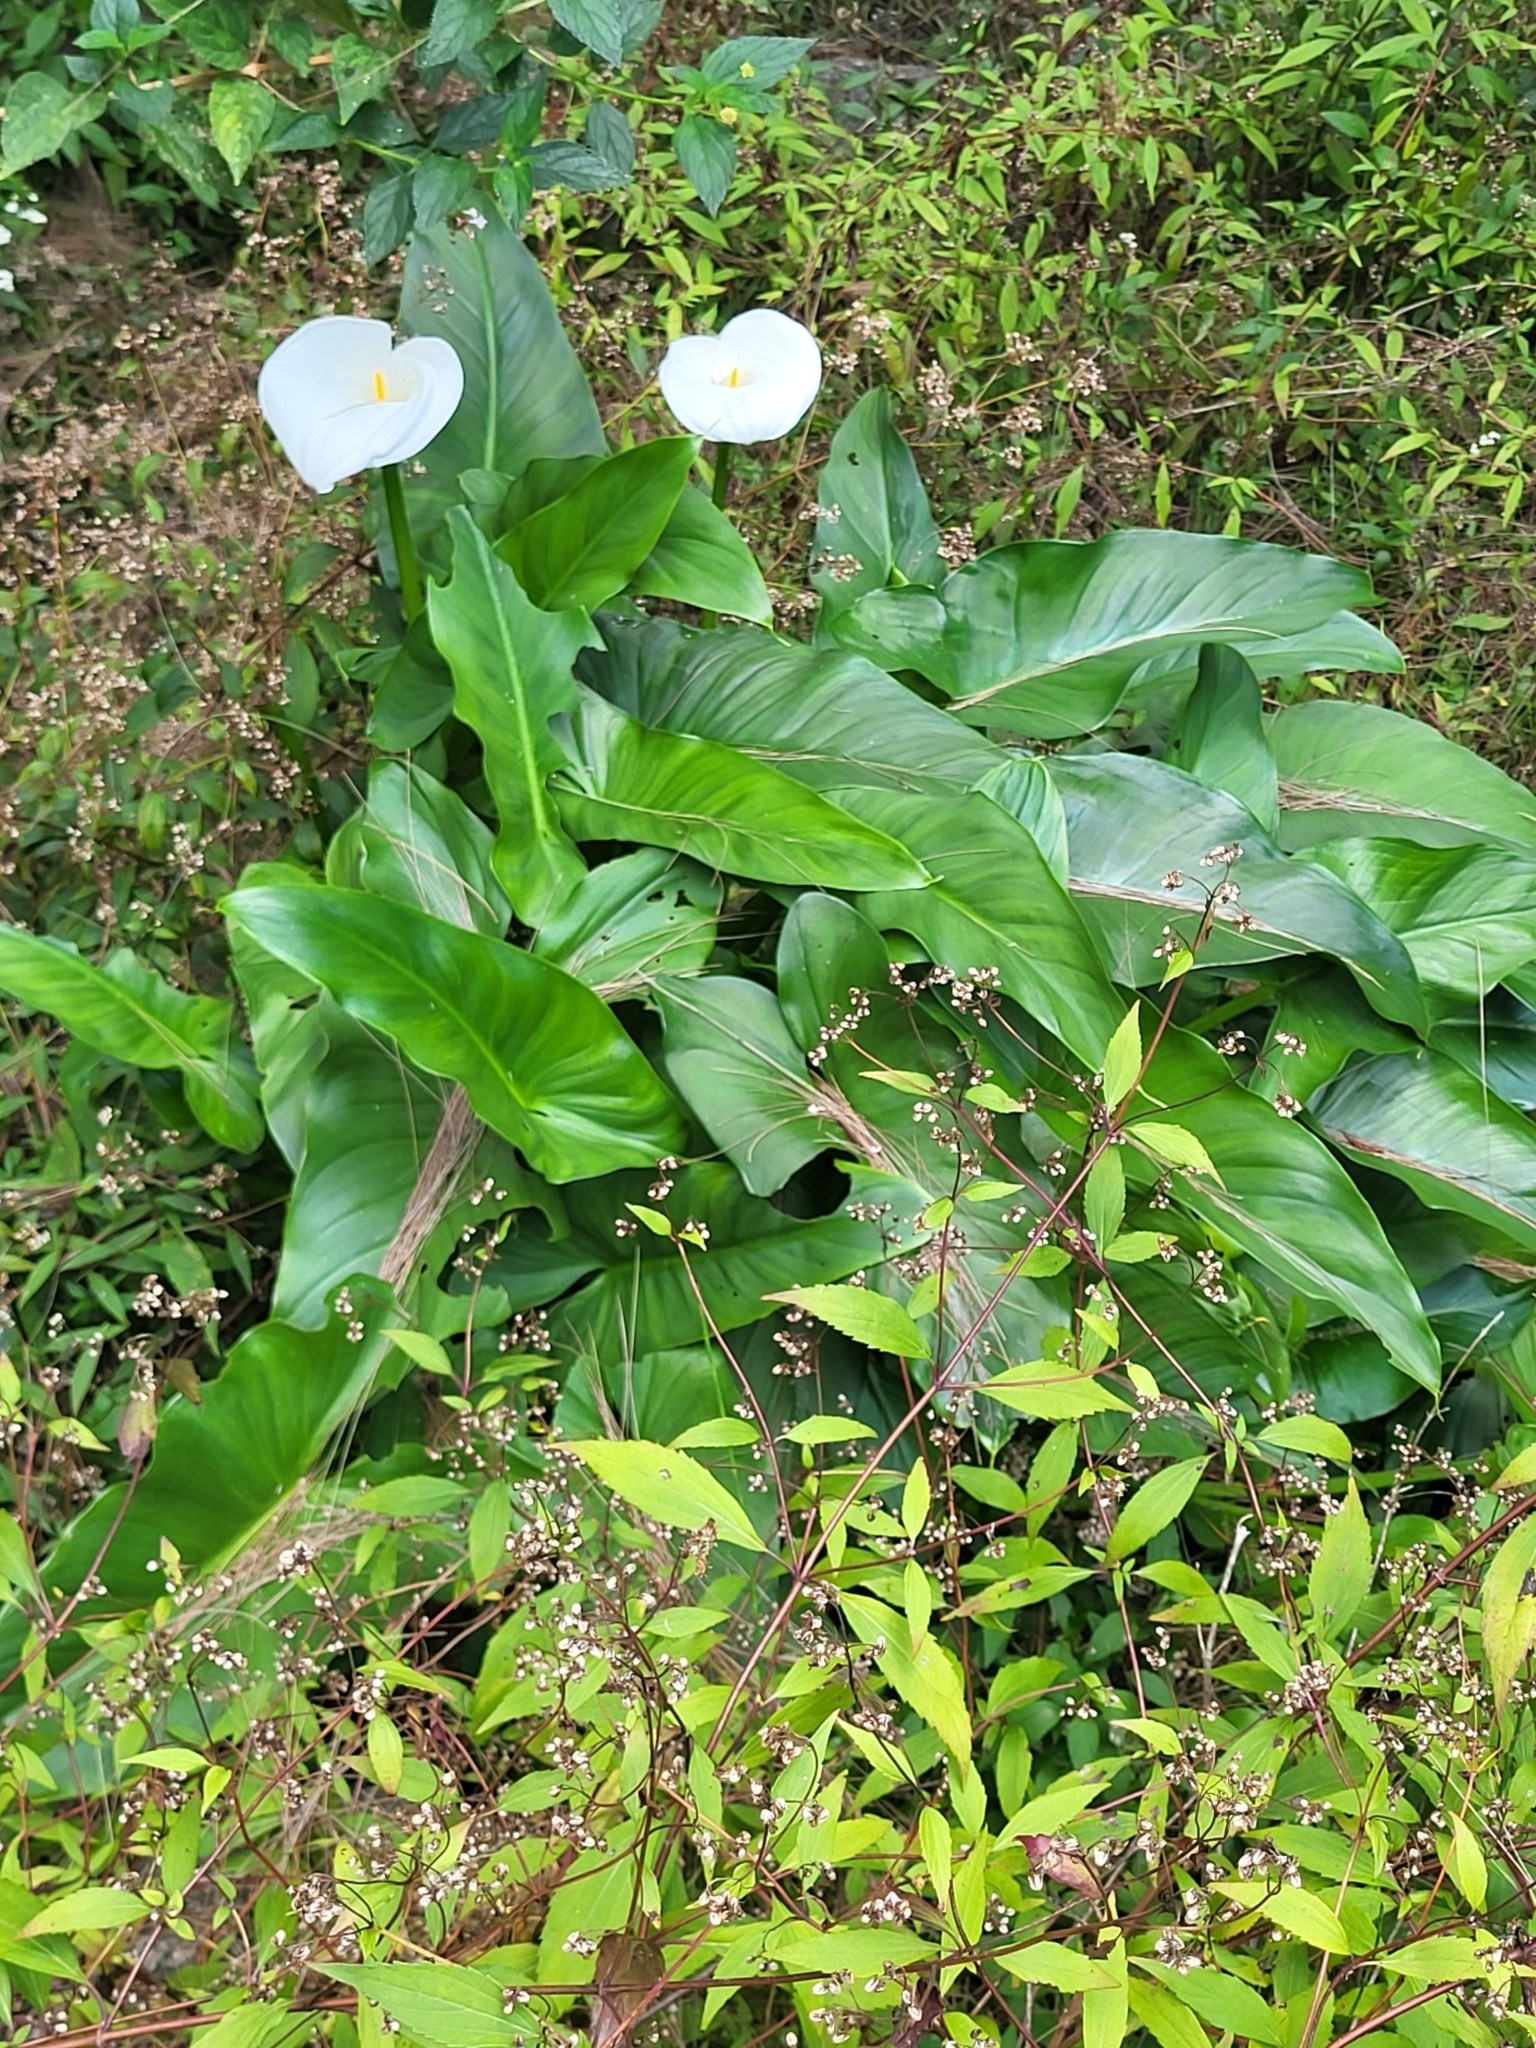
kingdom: Plantae
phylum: Tracheophyta
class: Liliopsida
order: Alismatales
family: Araceae
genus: Zantedeschia
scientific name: Zantedeschia aethiopica
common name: Altar-lily
